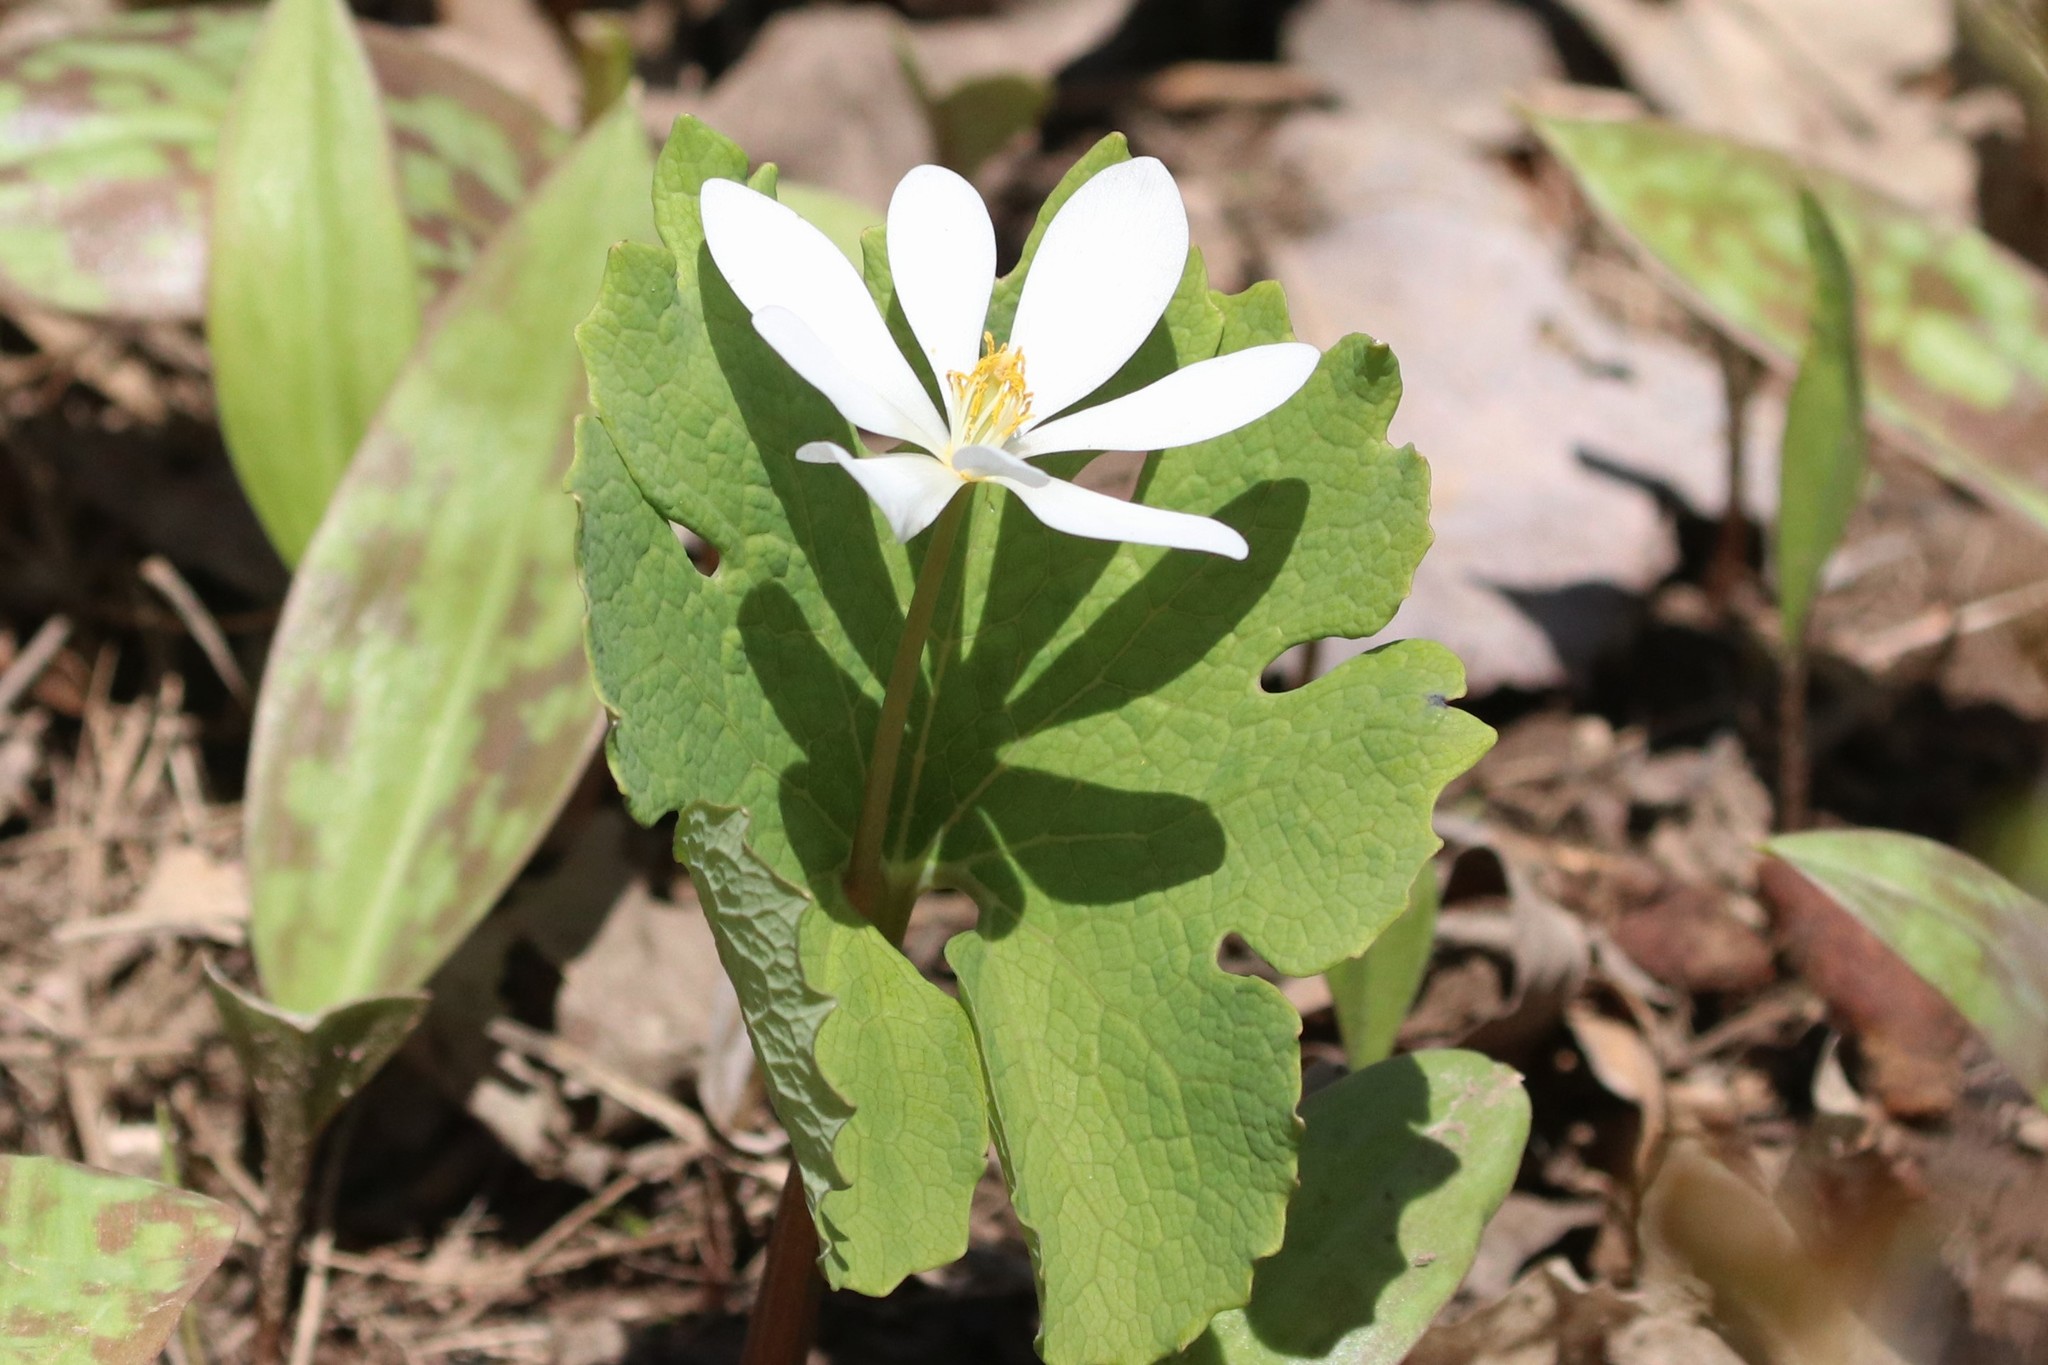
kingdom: Plantae
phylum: Tracheophyta
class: Magnoliopsida
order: Ranunculales
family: Papaveraceae
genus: Sanguinaria
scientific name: Sanguinaria canadensis
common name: Bloodroot
